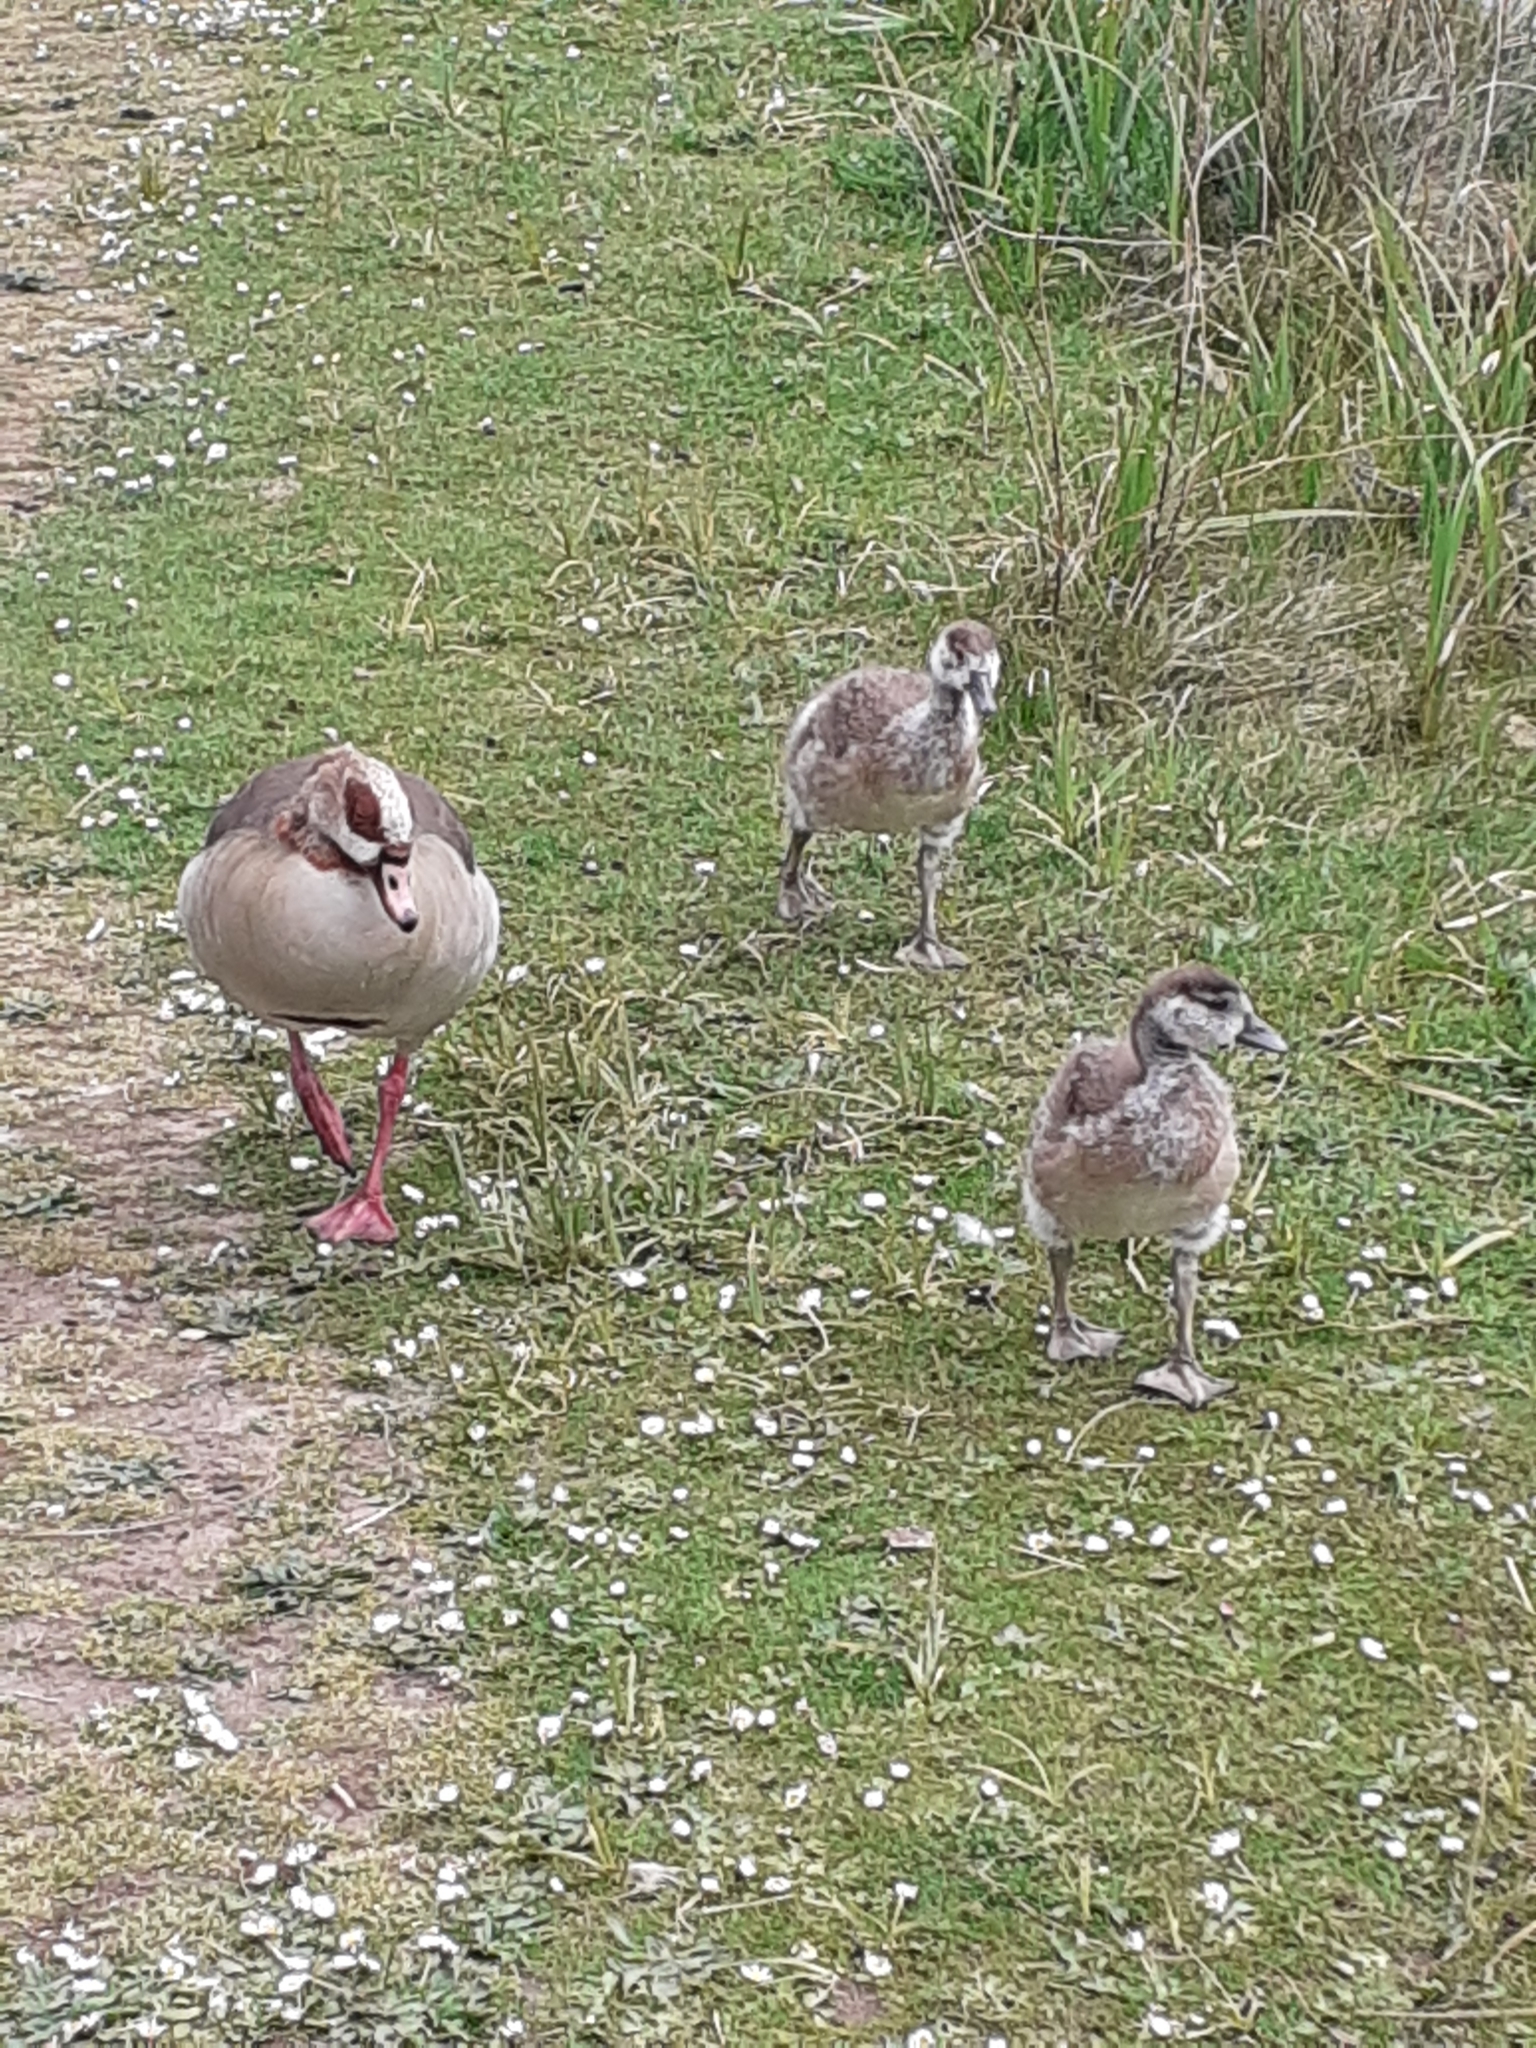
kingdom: Animalia
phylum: Chordata
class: Aves
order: Anseriformes
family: Anatidae
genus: Alopochen
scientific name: Alopochen aegyptiaca
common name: Egyptian goose
